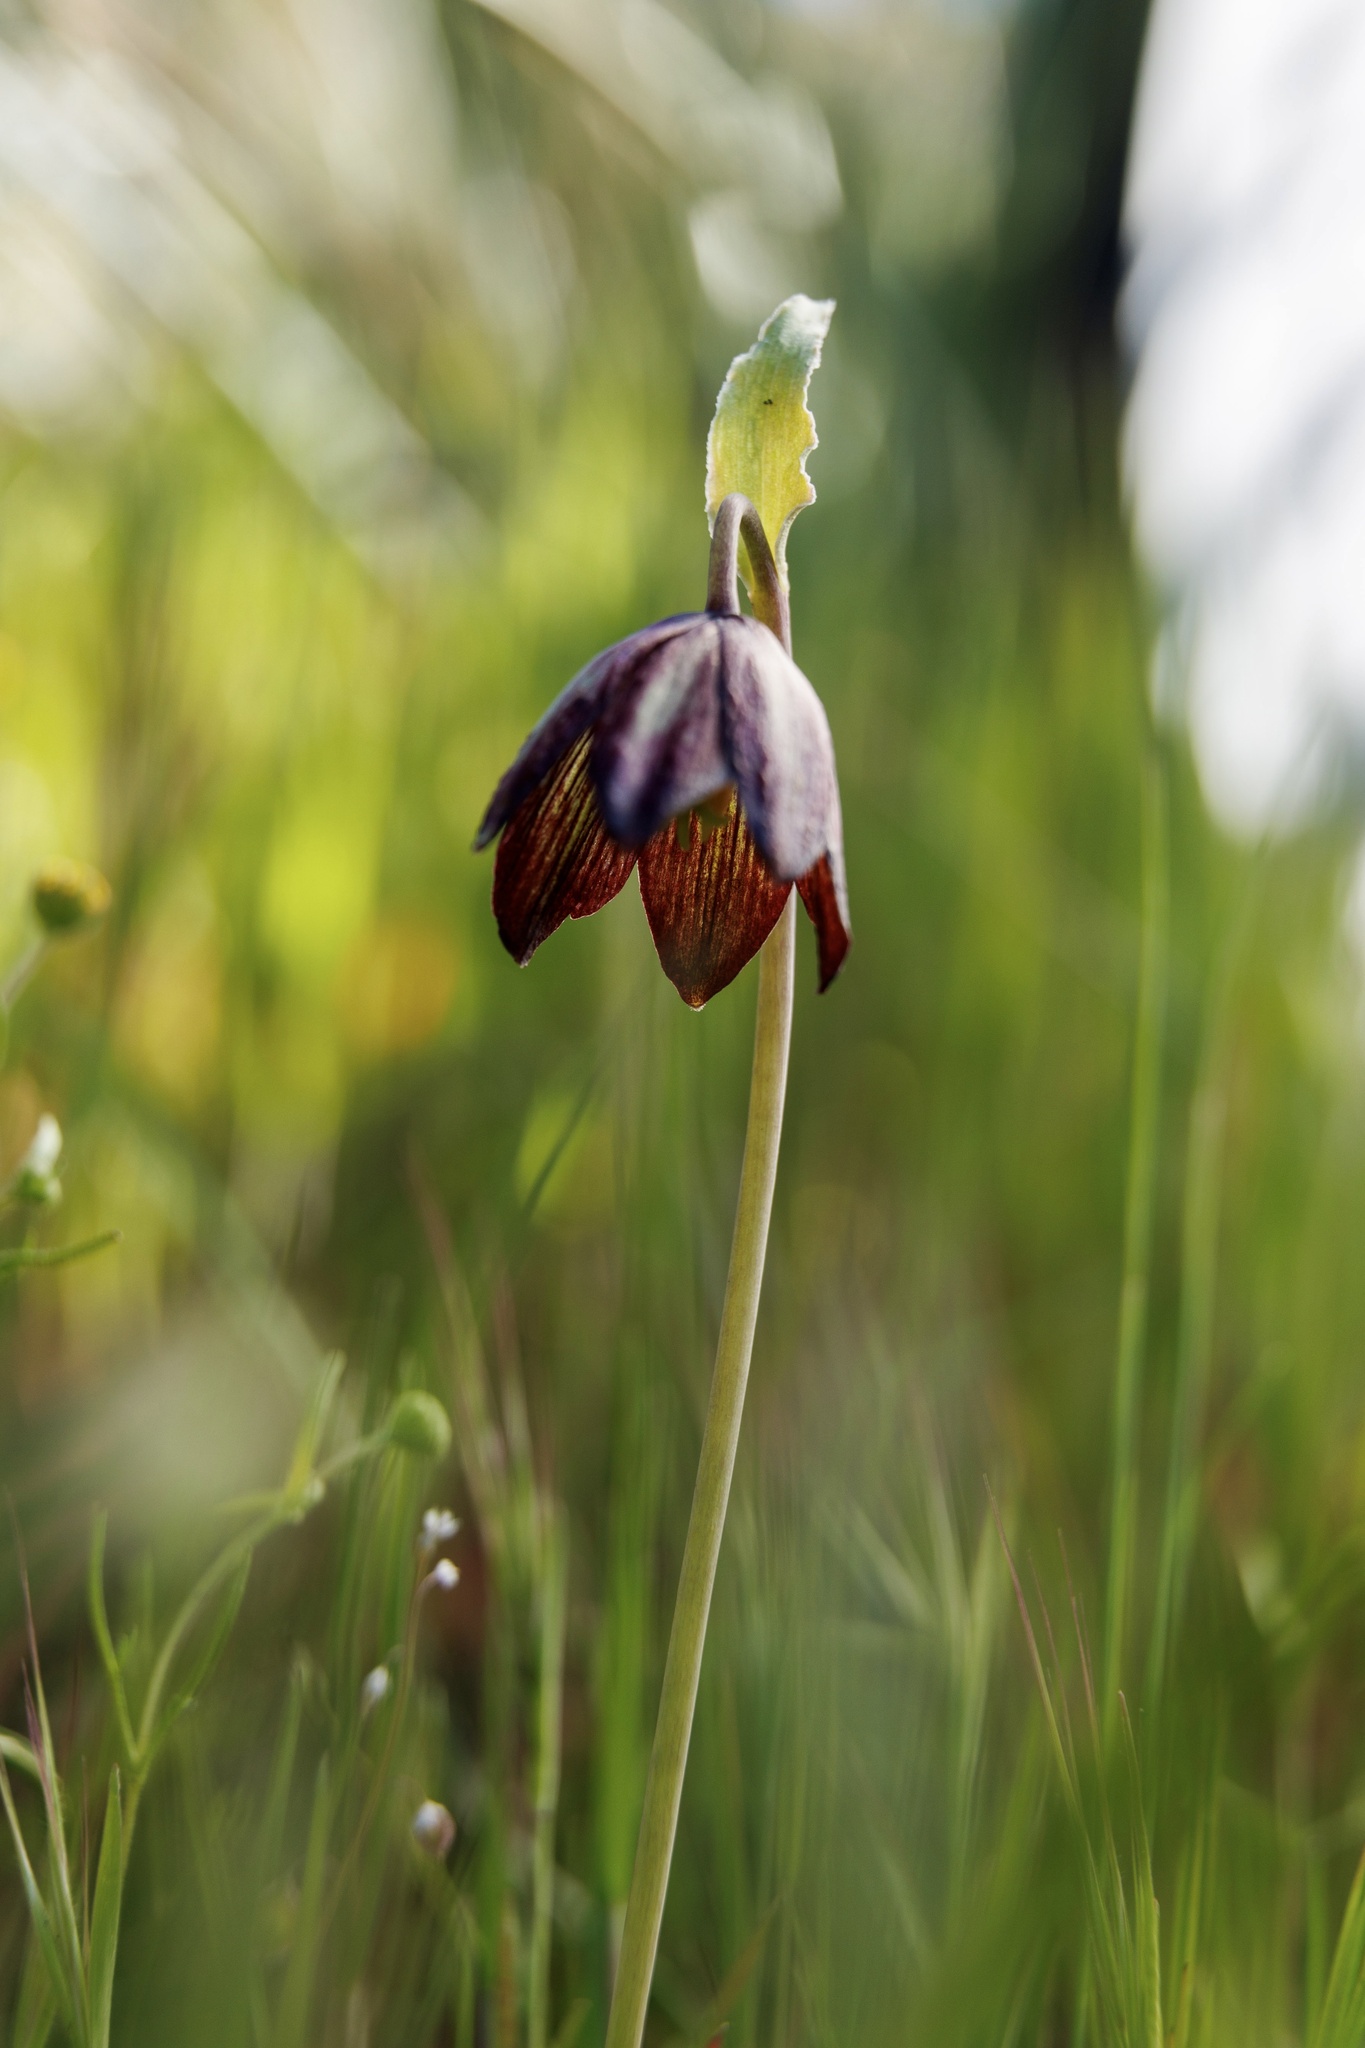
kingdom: Plantae
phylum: Tracheophyta
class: Liliopsida
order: Liliales
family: Liliaceae
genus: Fritillaria
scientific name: Fritillaria biflora
